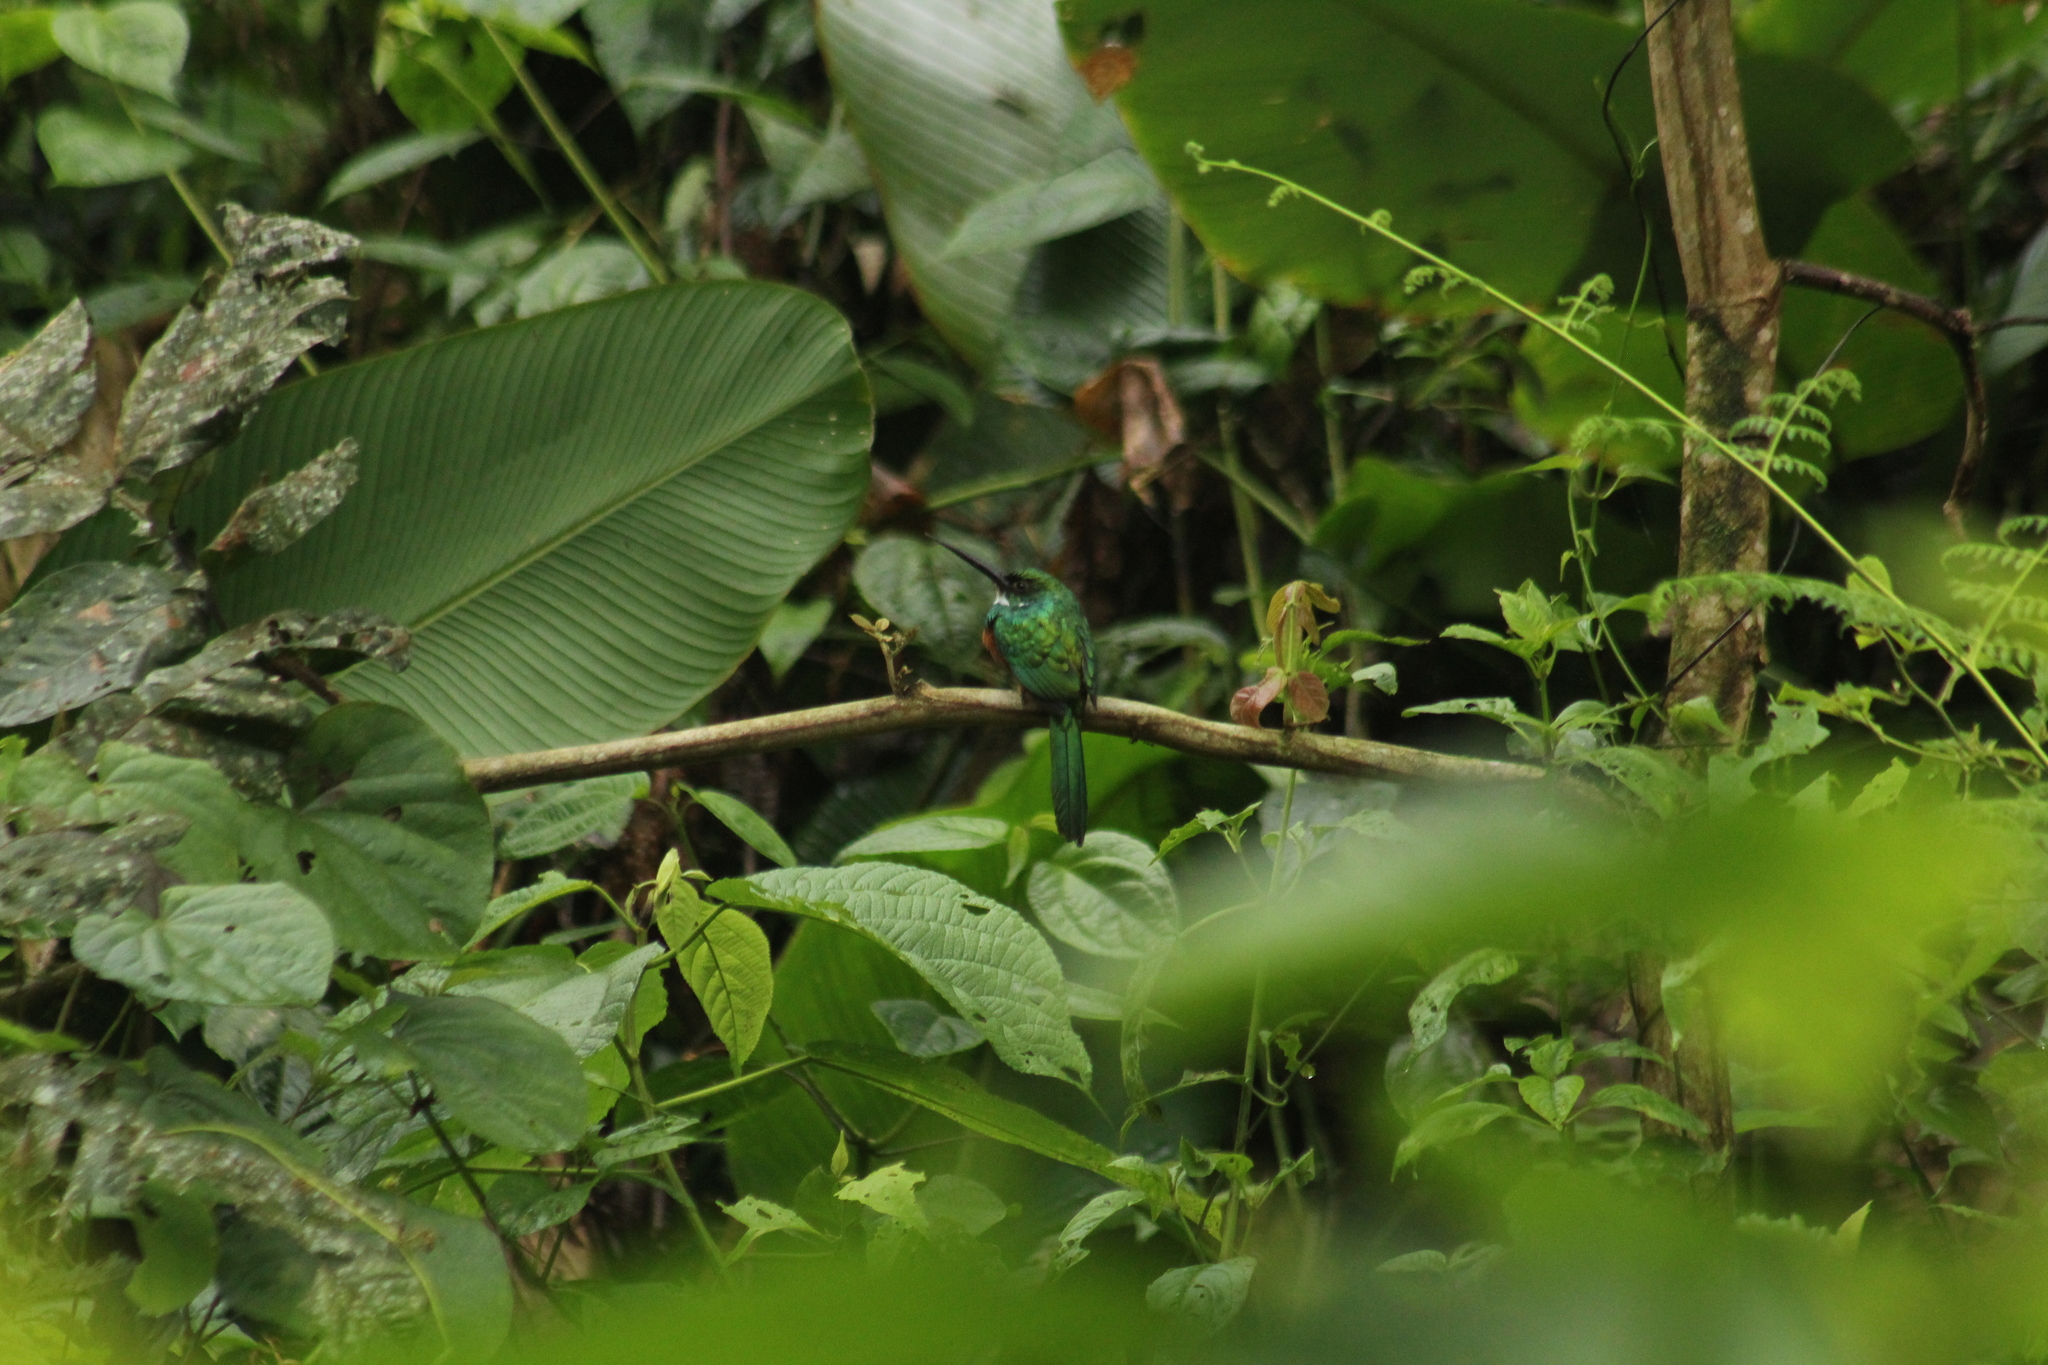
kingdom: Animalia
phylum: Chordata
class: Aves
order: Piciformes
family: Galbulidae
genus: Galbula
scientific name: Galbula ruficauda
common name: Rufous-tailed jacamar
